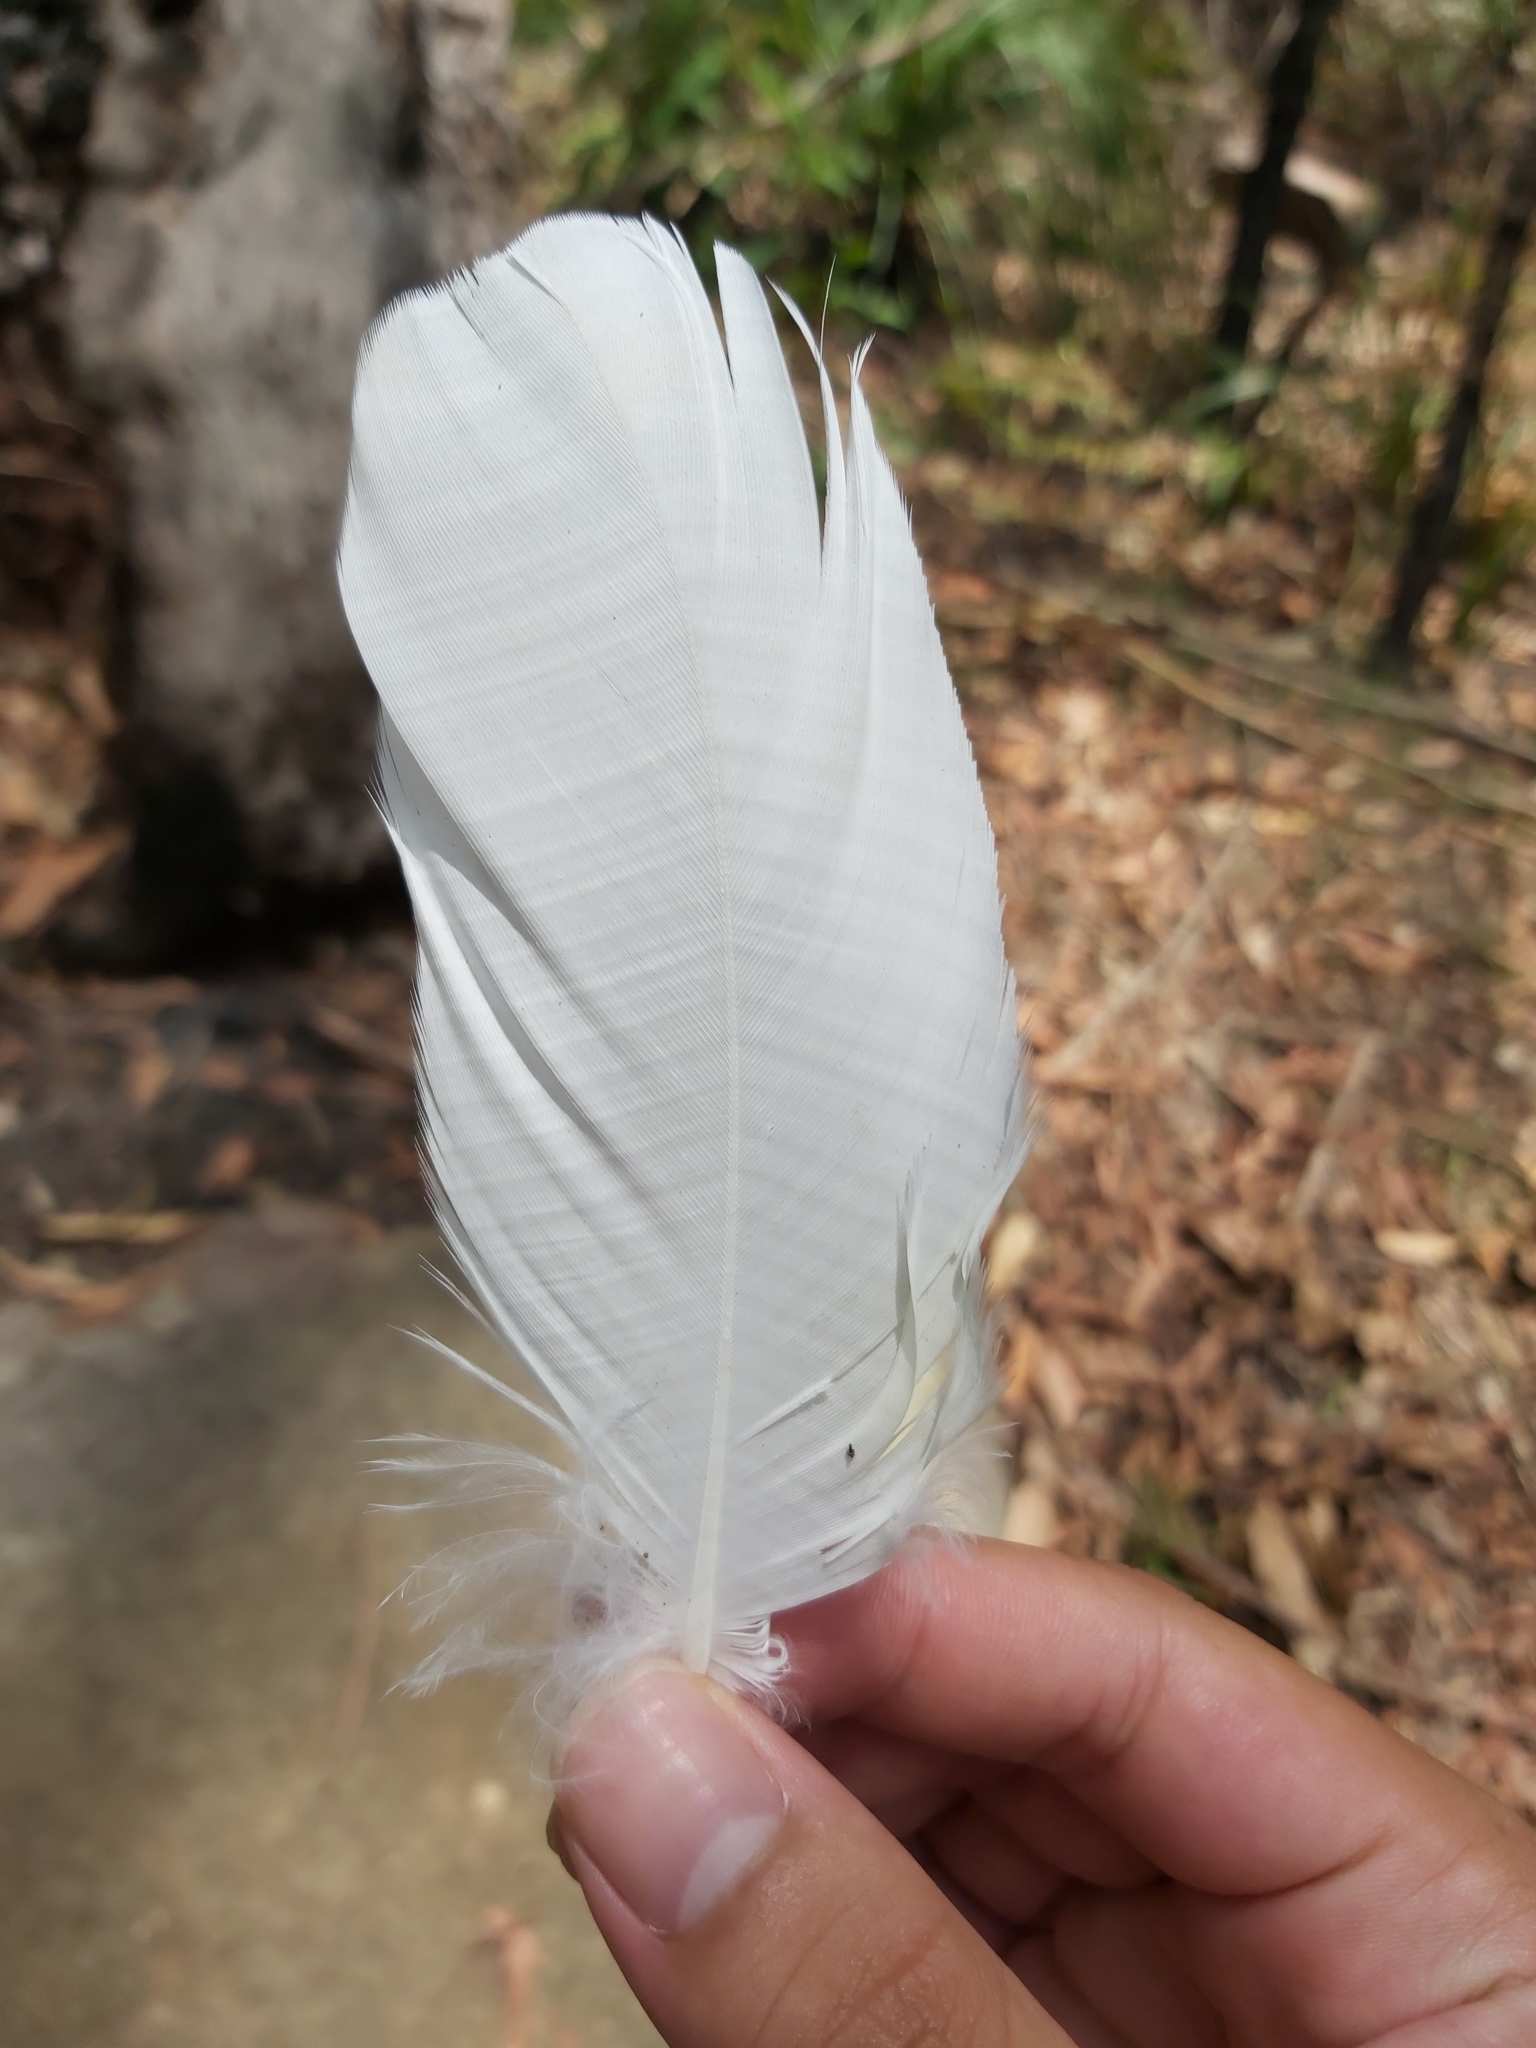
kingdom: Animalia
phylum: Chordata
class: Aves
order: Psittaciformes
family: Psittacidae
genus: Cacatua
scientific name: Cacatua galerita
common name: Sulphur-crested cockatoo
